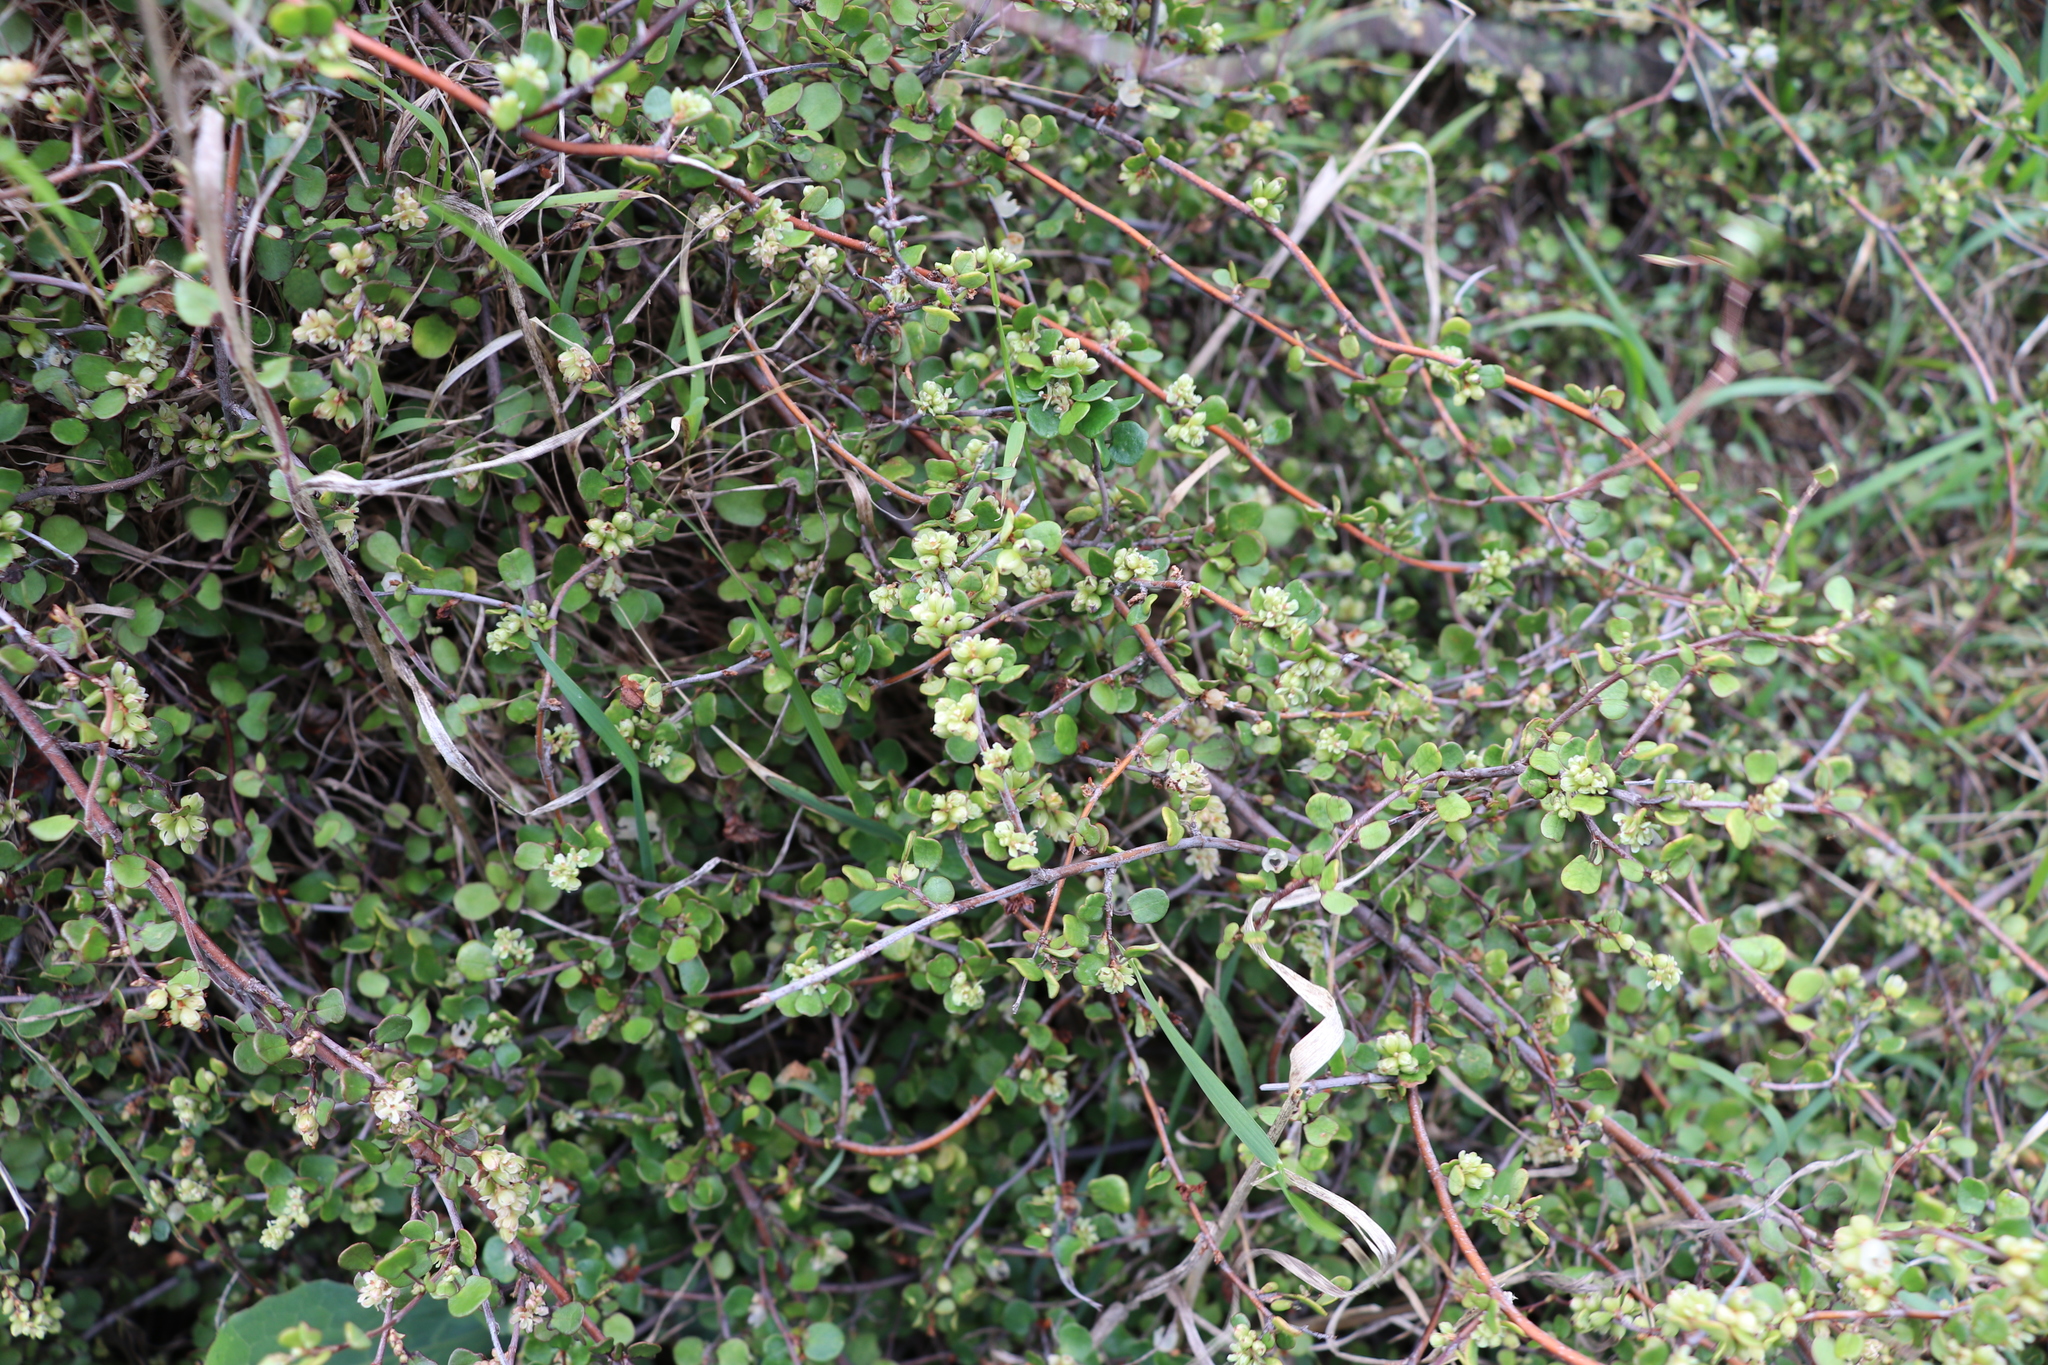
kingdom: Plantae
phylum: Tracheophyta
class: Magnoliopsida
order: Caryophyllales
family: Polygonaceae
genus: Muehlenbeckia
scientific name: Muehlenbeckia complexa
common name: Wireplant
